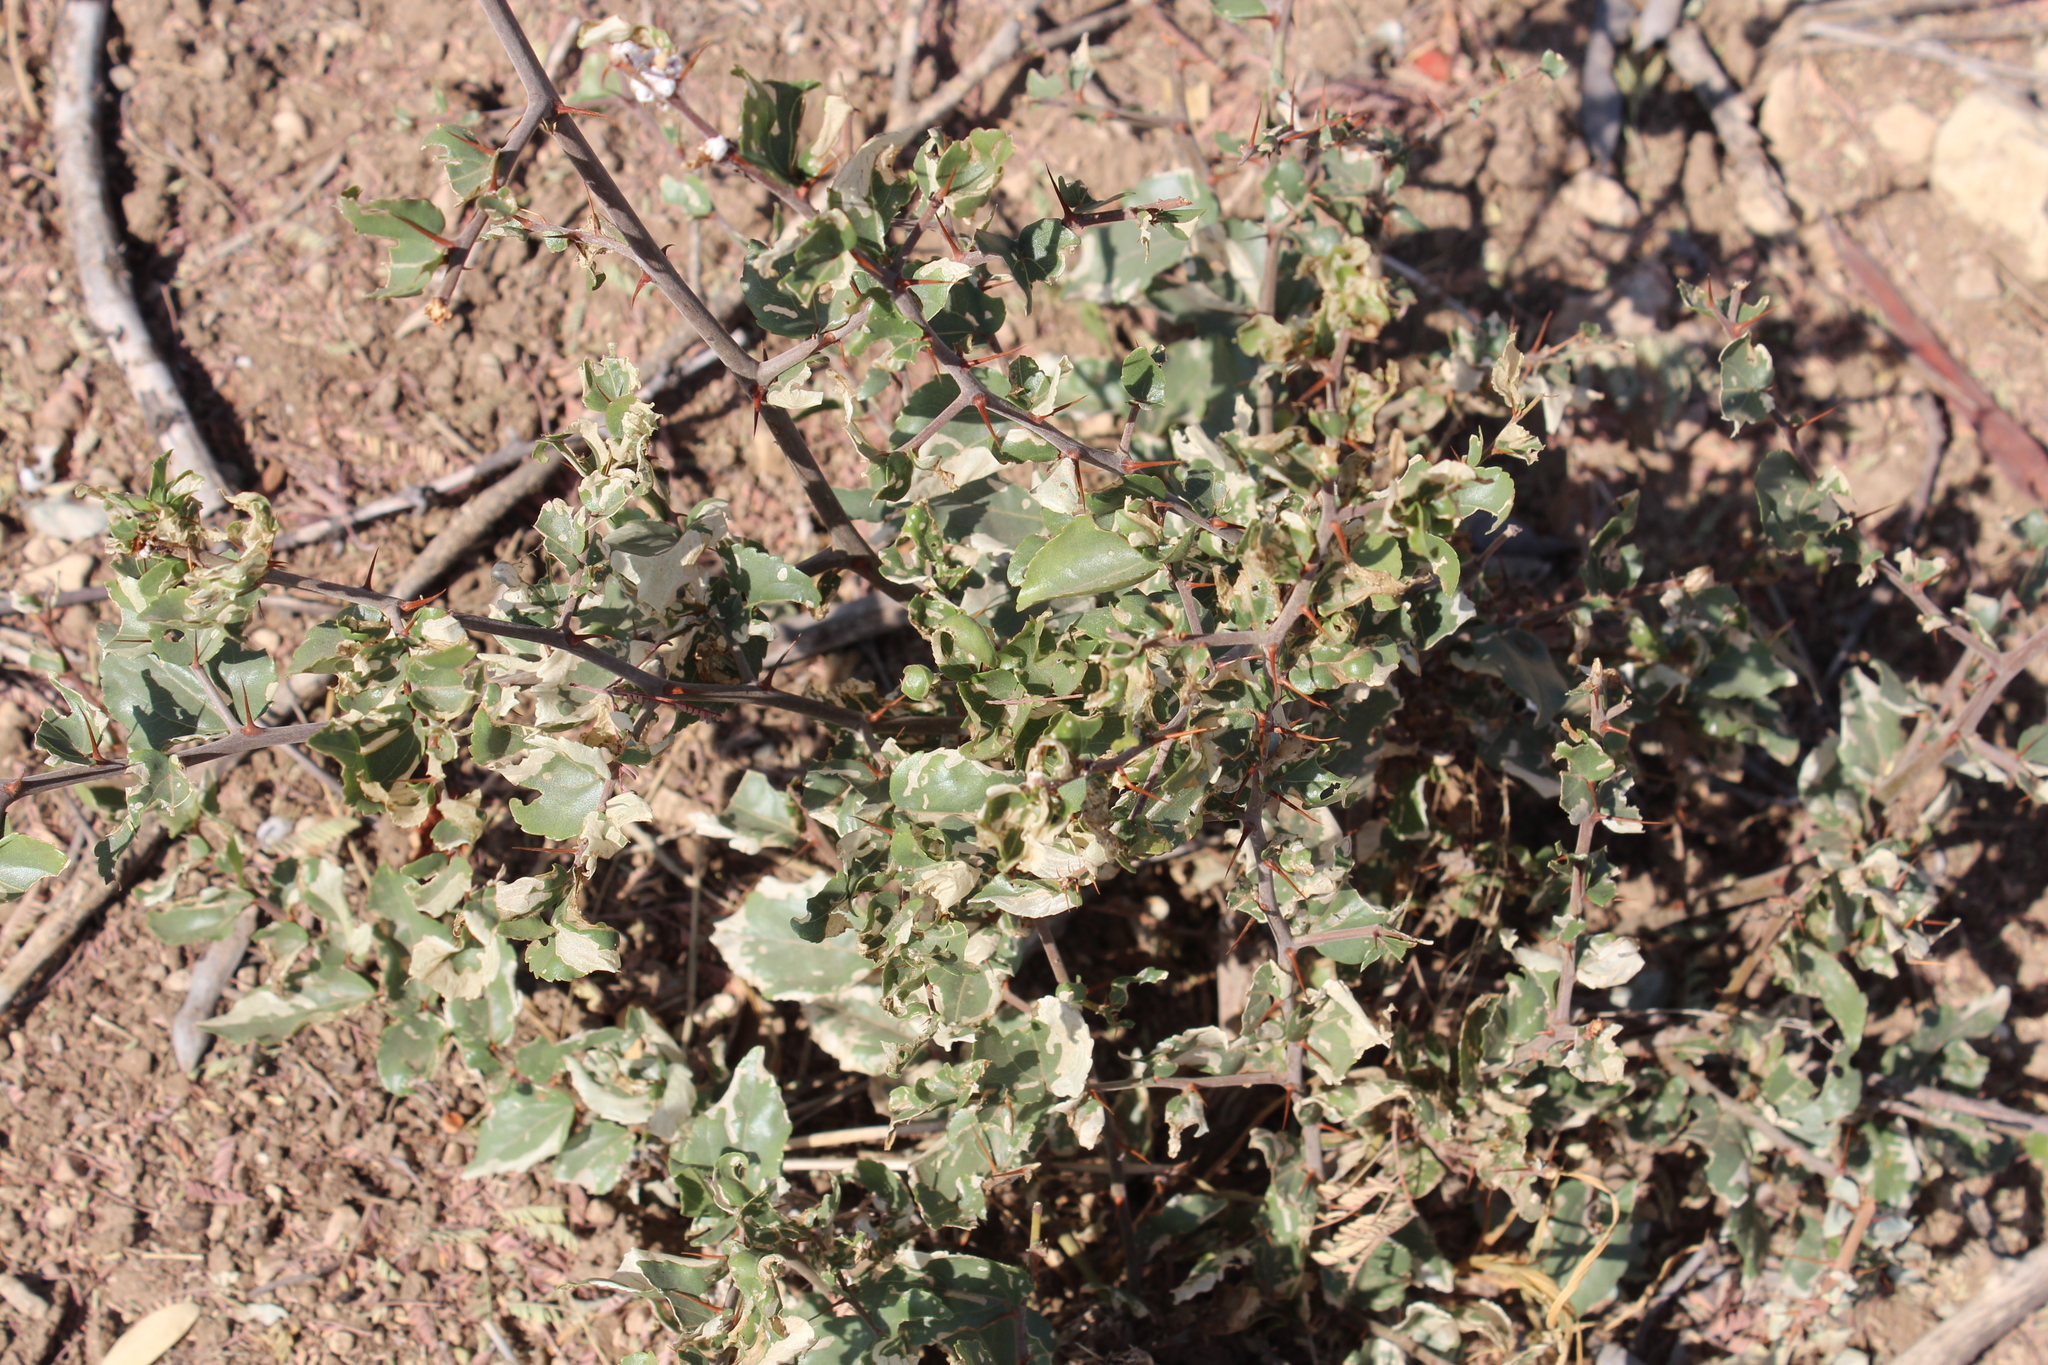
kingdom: Plantae
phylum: Tracheophyta
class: Magnoliopsida
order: Rosales
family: Rhamnaceae
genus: Ziziphus
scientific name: Ziziphus mucronata
